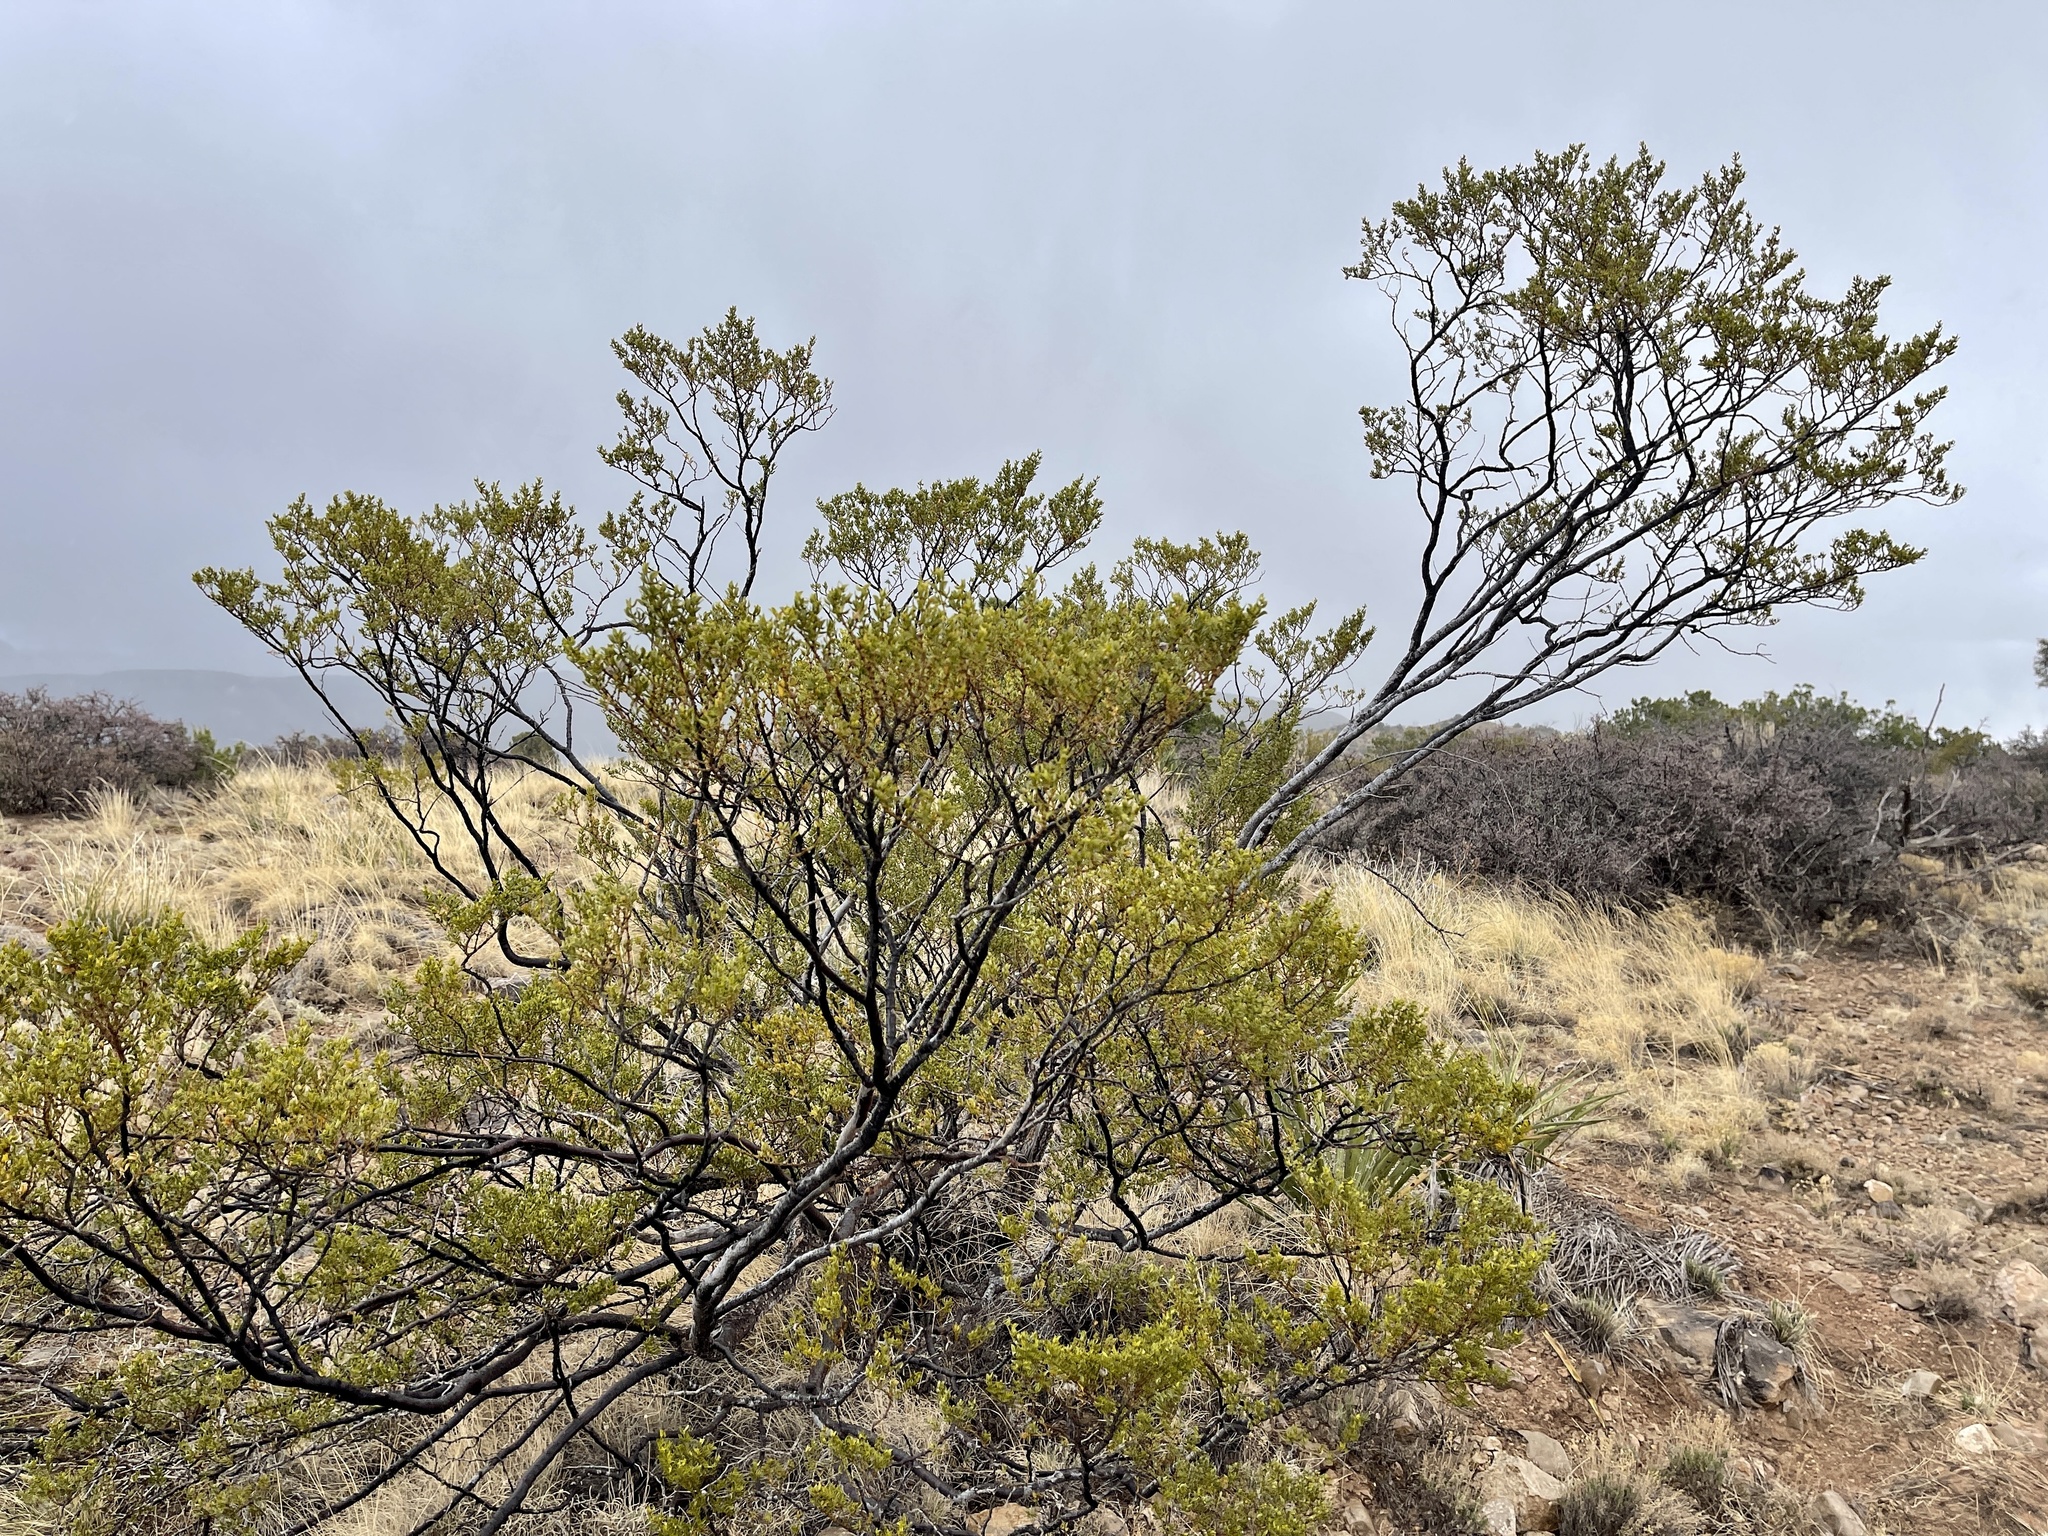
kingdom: Plantae
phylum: Tracheophyta
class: Magnoliopsida
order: Zygophyllales
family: Zygophyllaceae
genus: Larrea
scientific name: Larrea tridentata
